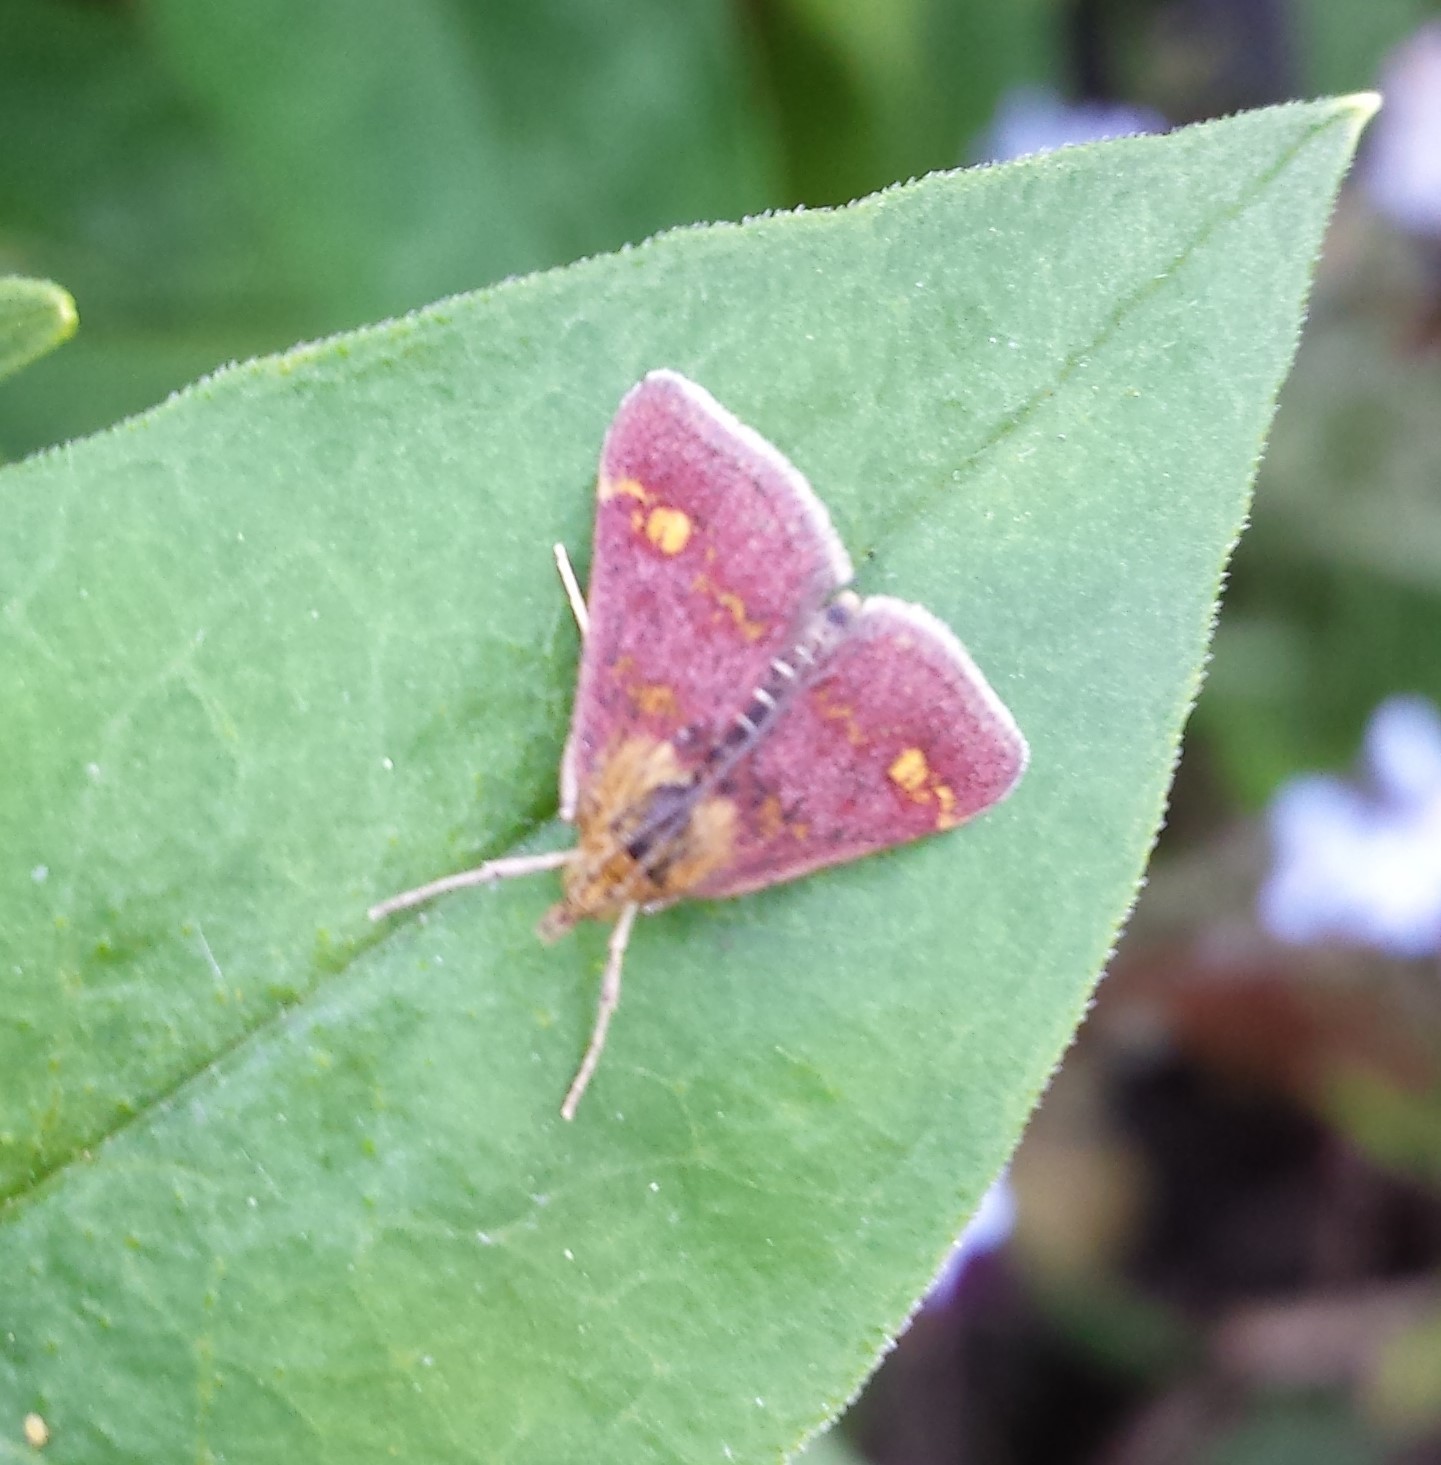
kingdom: Animalia
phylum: Arthropoda
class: Insecta
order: Lepidoptera
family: Crambidae
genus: Pyrausta
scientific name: Pyrausta aurata
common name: Small purple & gold
